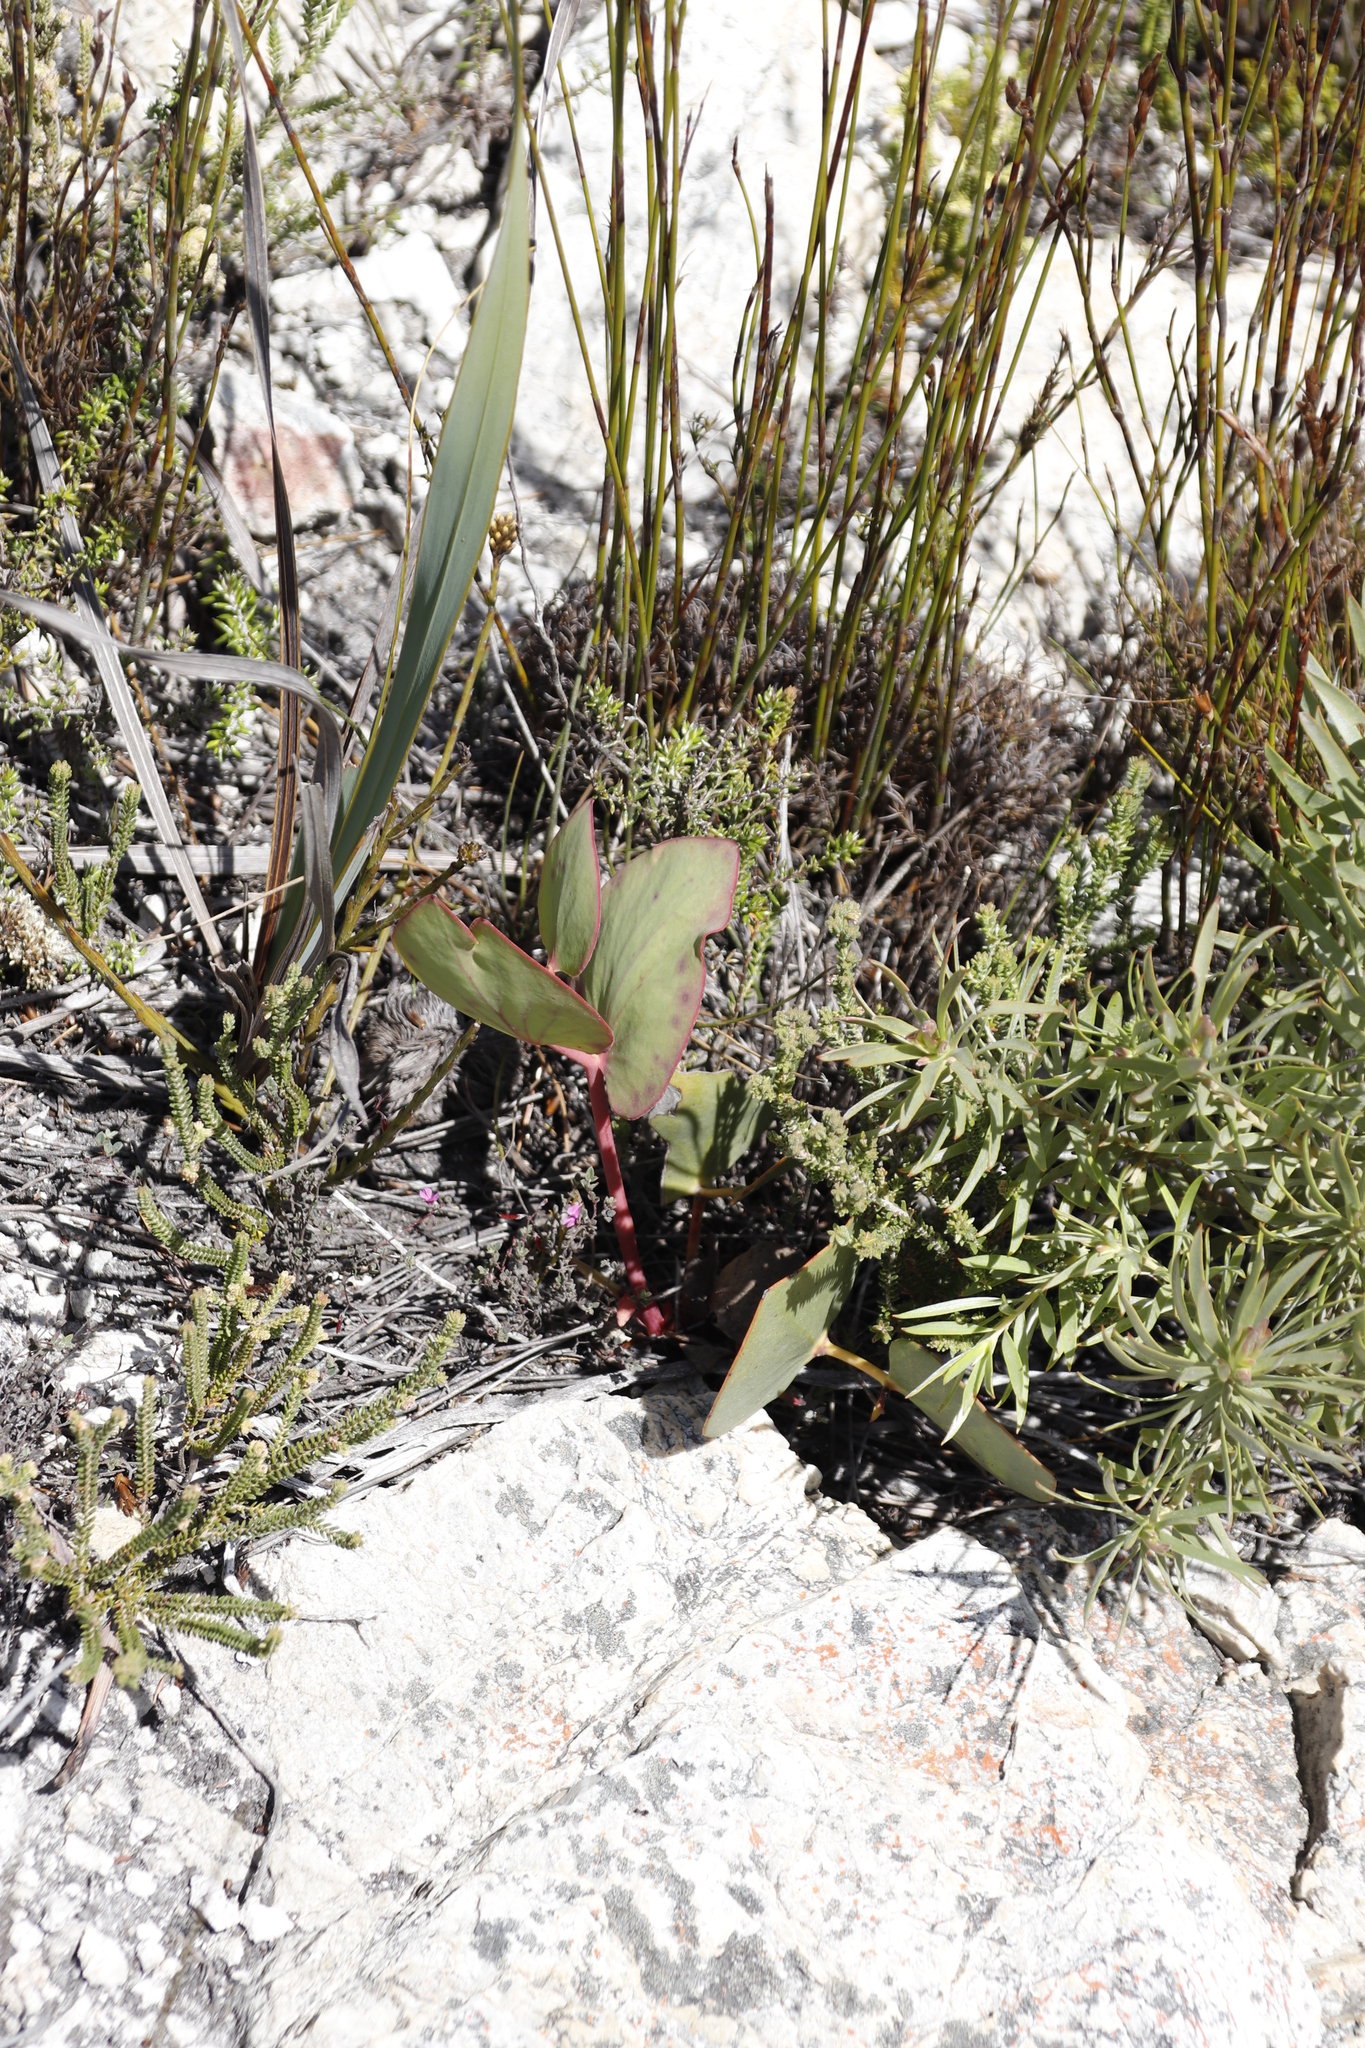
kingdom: Plantae
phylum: Tracheophyta
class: Magnoliopsida
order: Proteales
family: Proteaceae
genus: Protea
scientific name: Protea cordata
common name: Heart-leaf sugarbush
